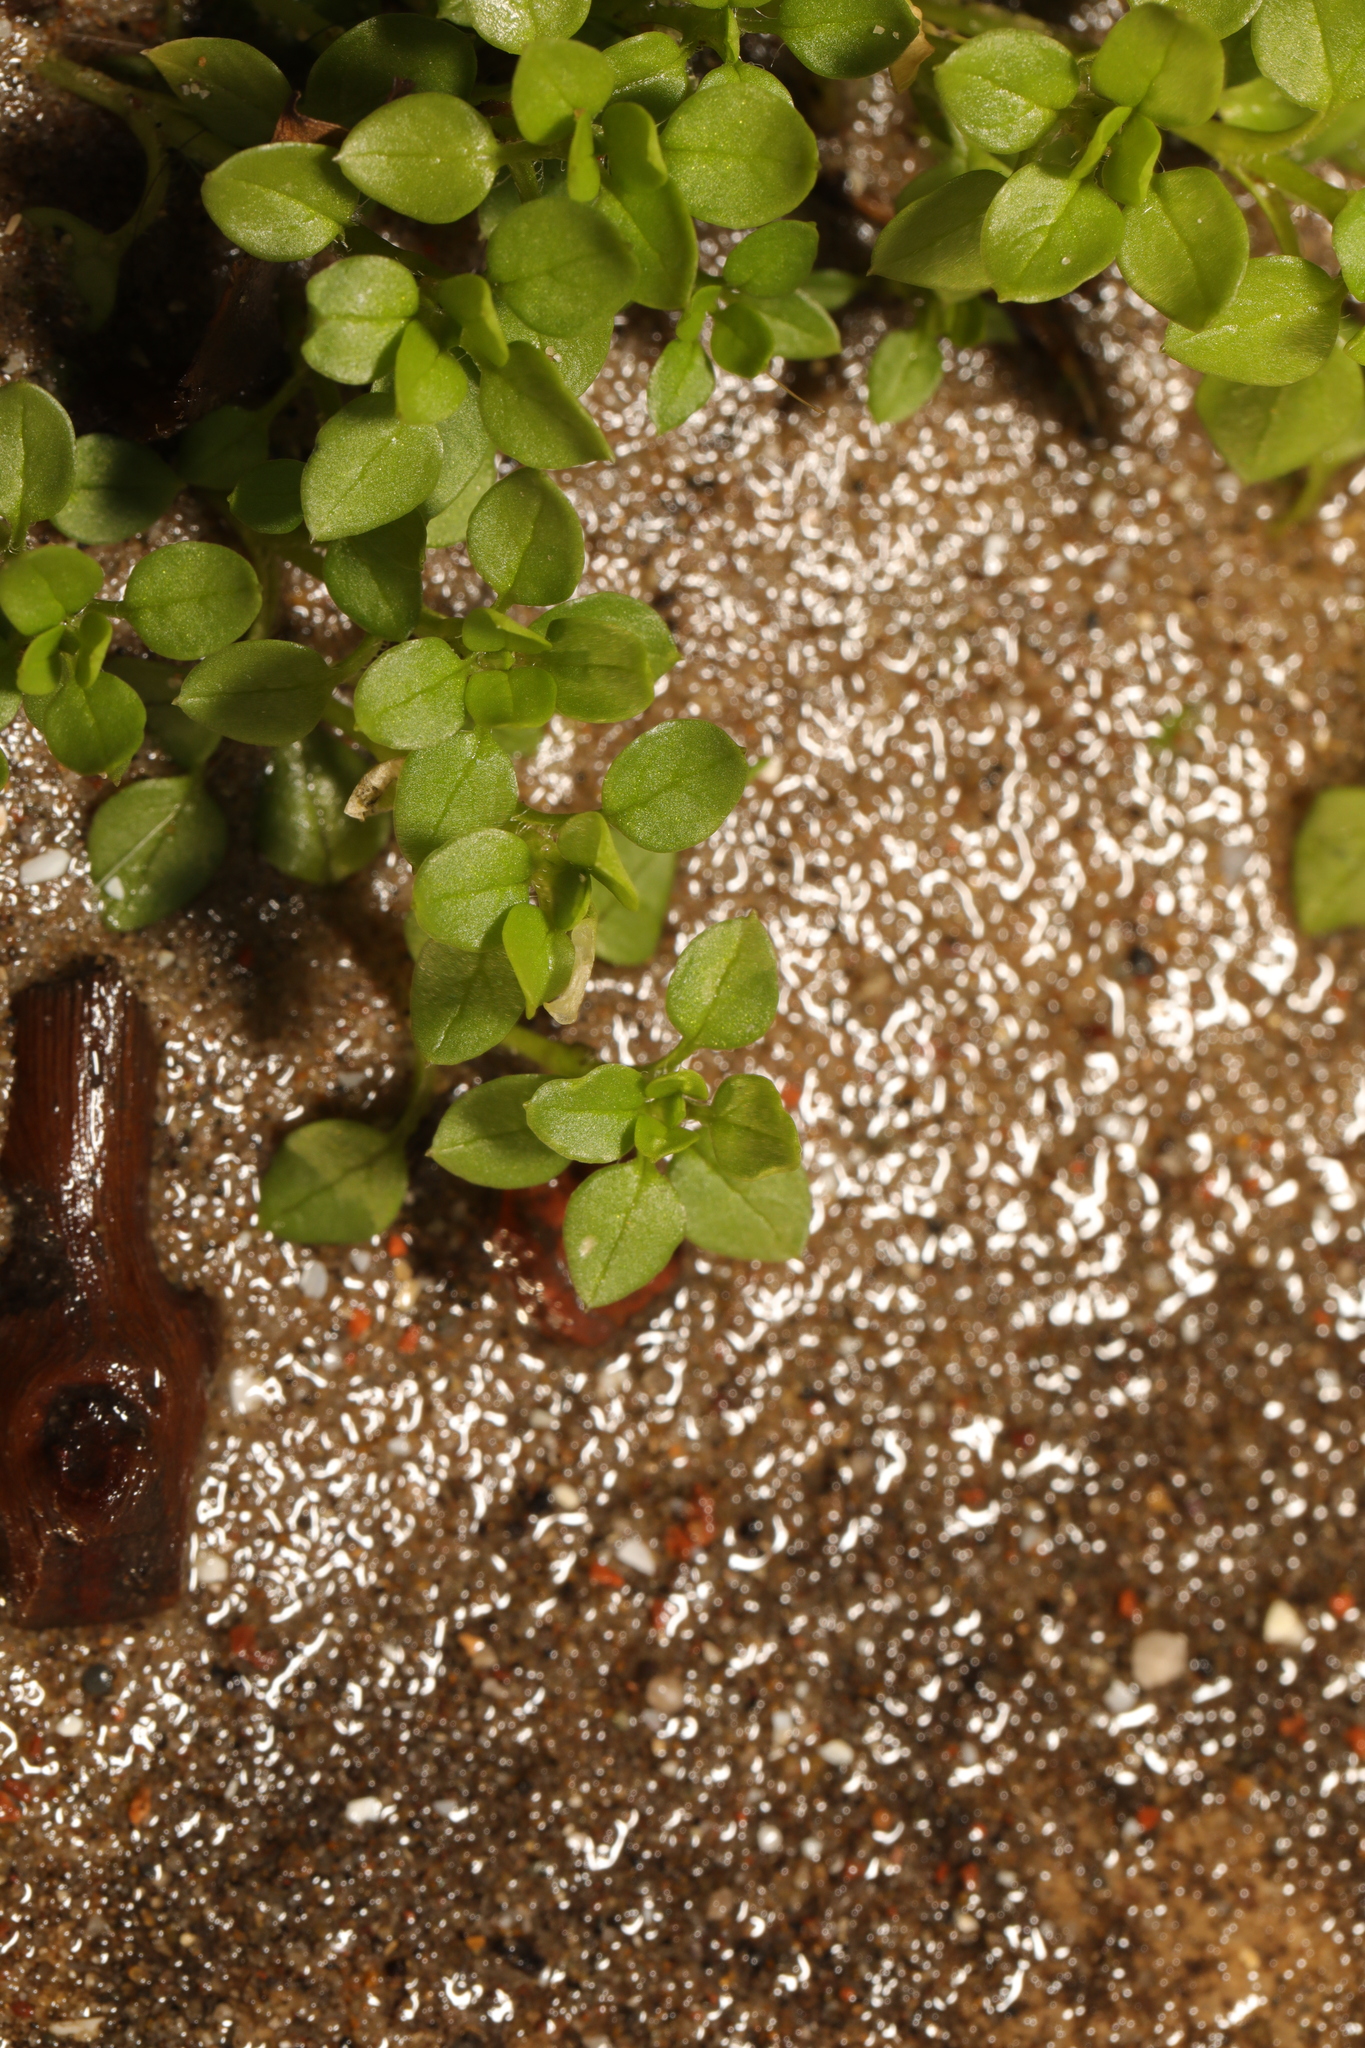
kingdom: Plantae
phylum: Tracheophyta
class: Magnoliopsida
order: Caryophyllales
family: Caryophyllaceae
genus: Stellaria
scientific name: Stellaria media
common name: Common chickweed
